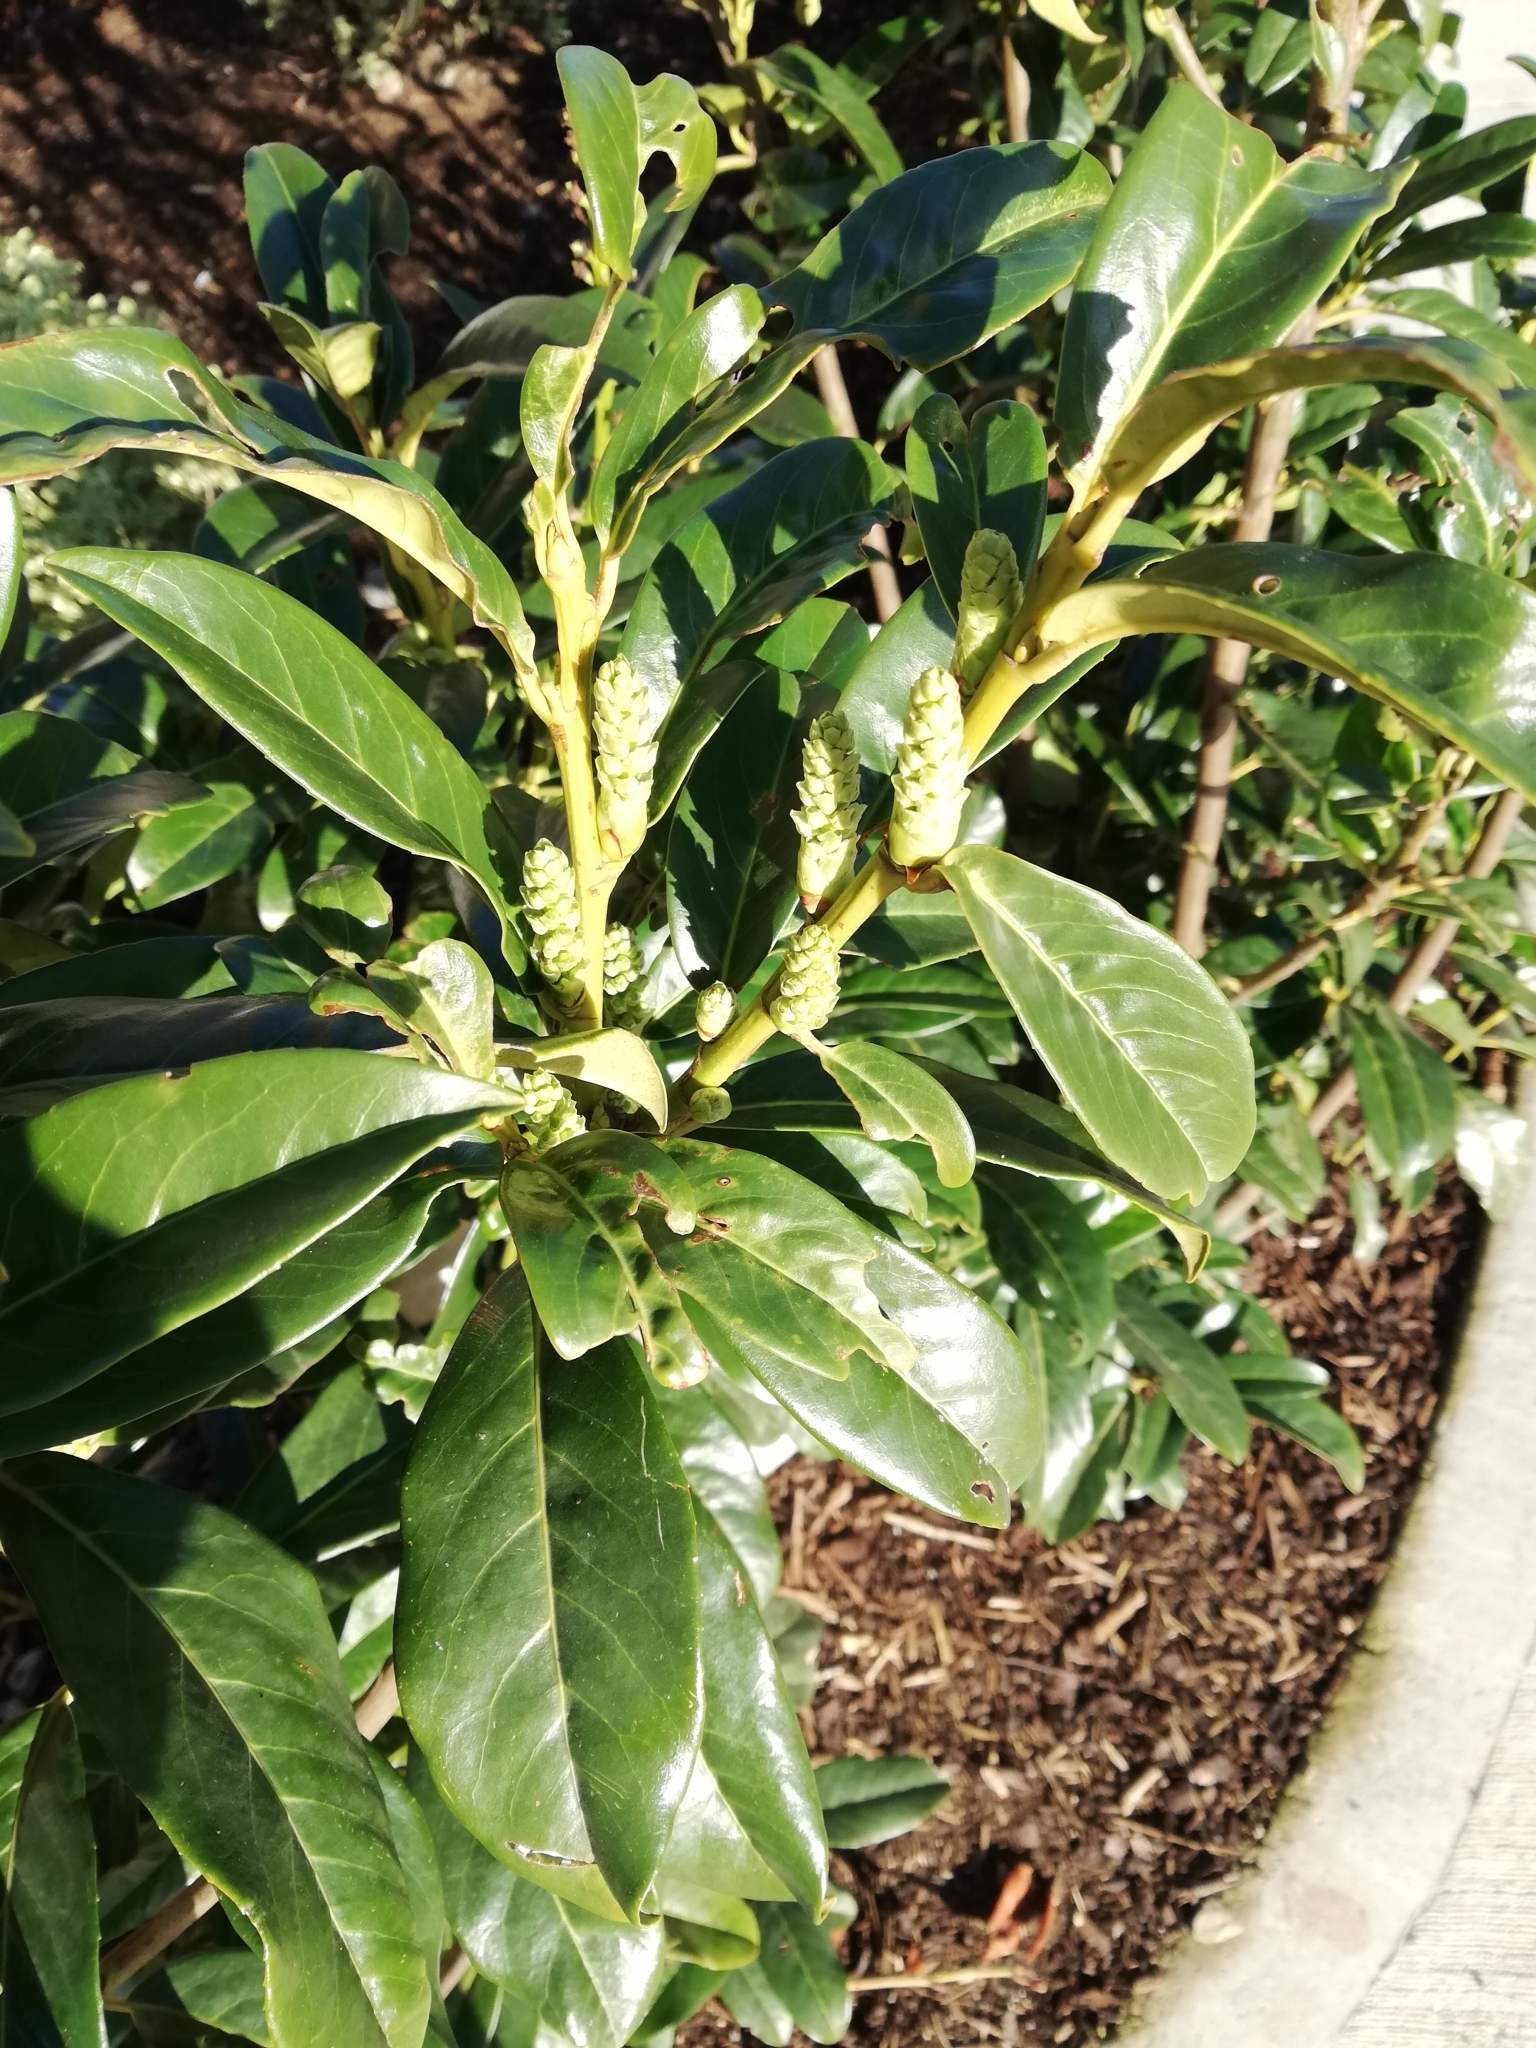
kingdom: Plantae
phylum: Tracheophyta
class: Magnoliopsida
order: Rosales
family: Rosaceae
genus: Prunus
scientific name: Prunus laurocerasus
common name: Cherry laurel
